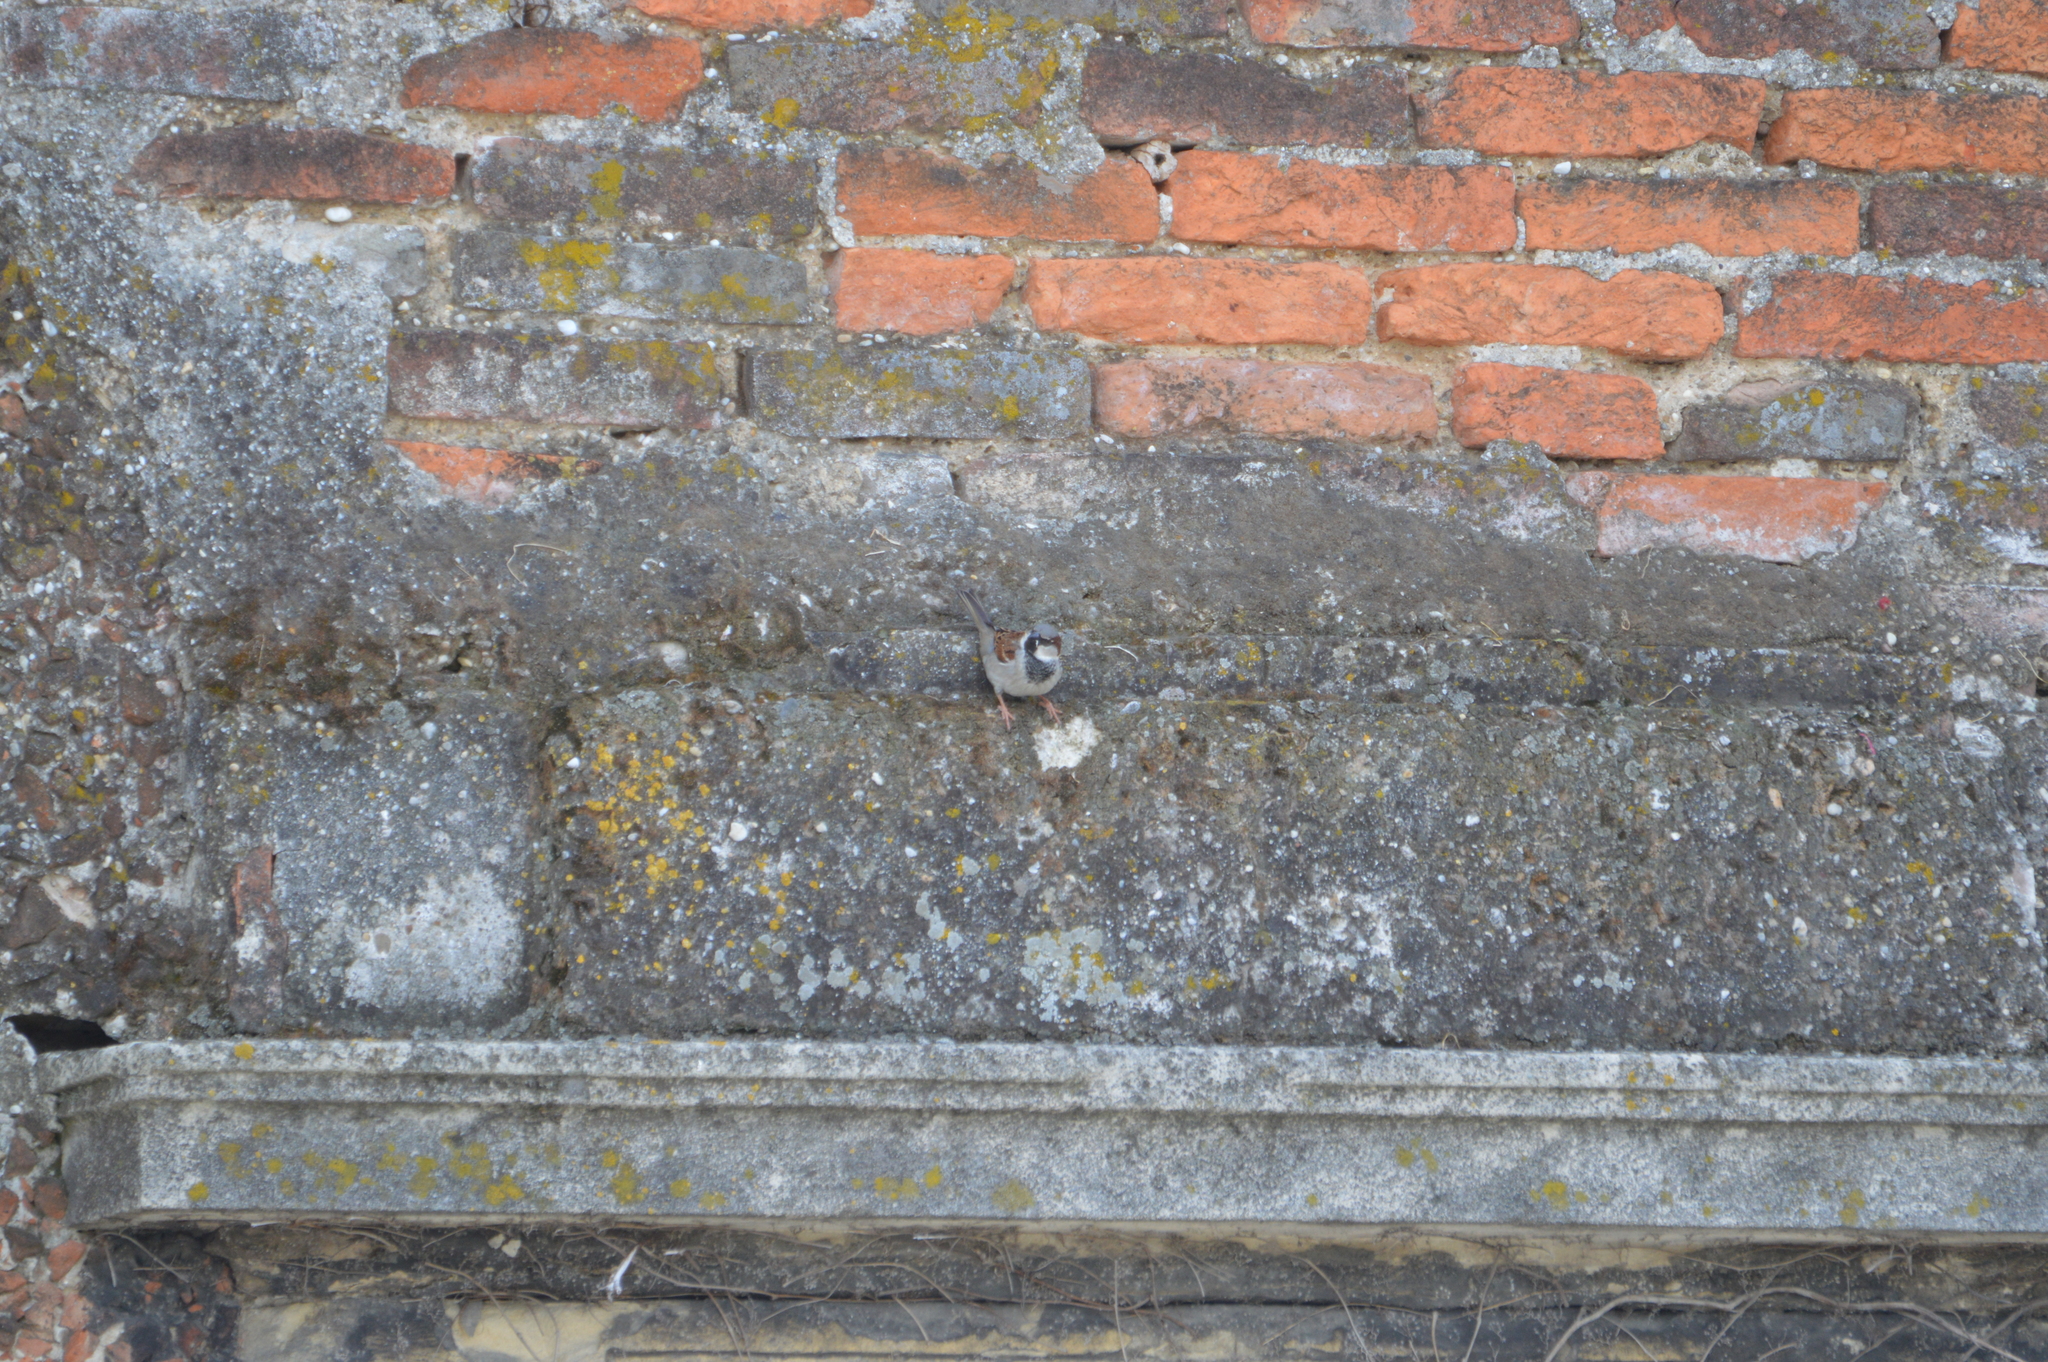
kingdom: Animalia
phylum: Chordata
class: Aves
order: Passeriformes
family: Passeridae
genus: Passer
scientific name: Passer domesticus
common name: House sparrow
